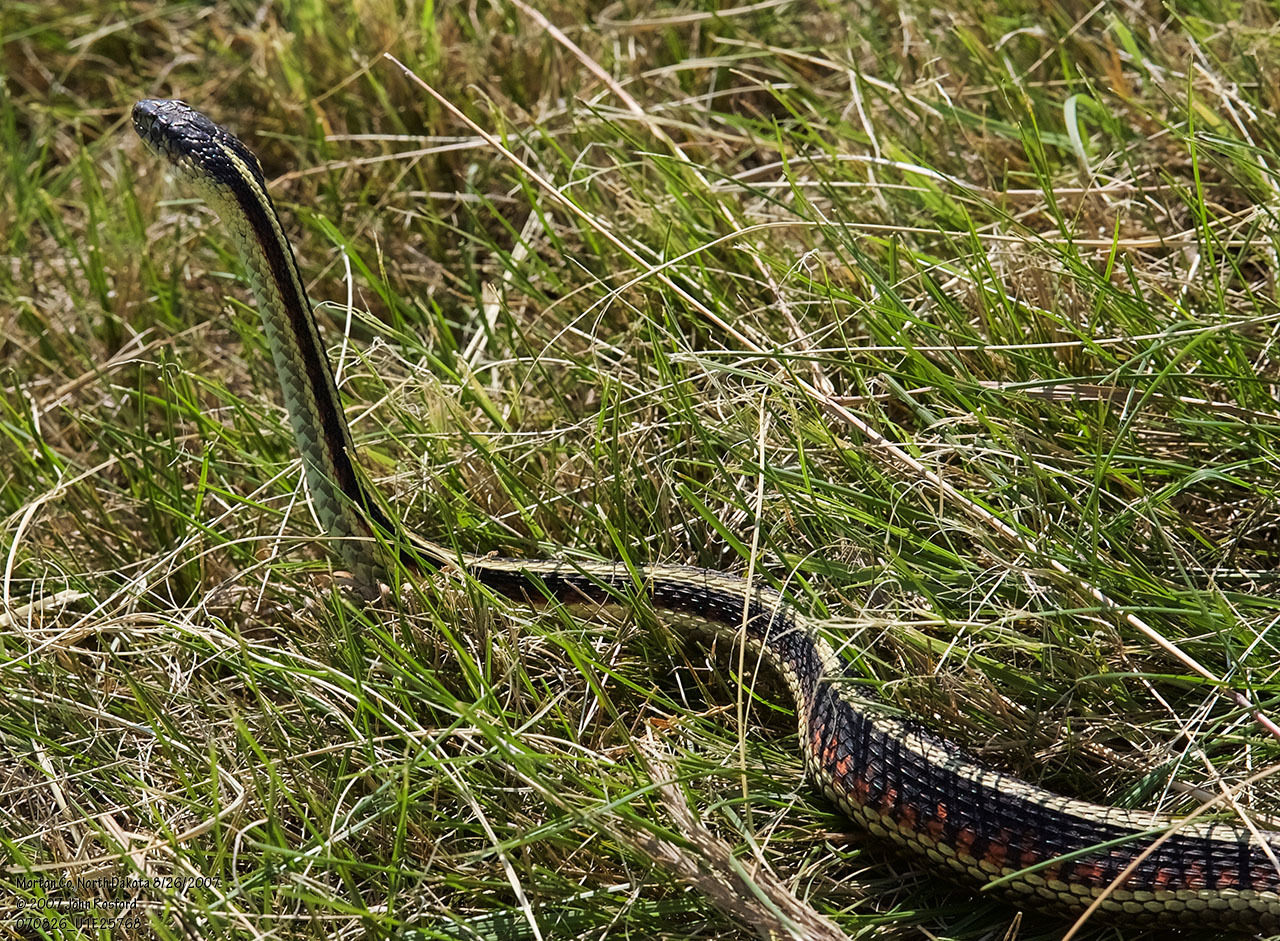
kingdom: Animalia
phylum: Chordata
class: Squamata
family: Colubridae
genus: Thamnophis
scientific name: Thamnophis sirtalis
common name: Common garter snake
